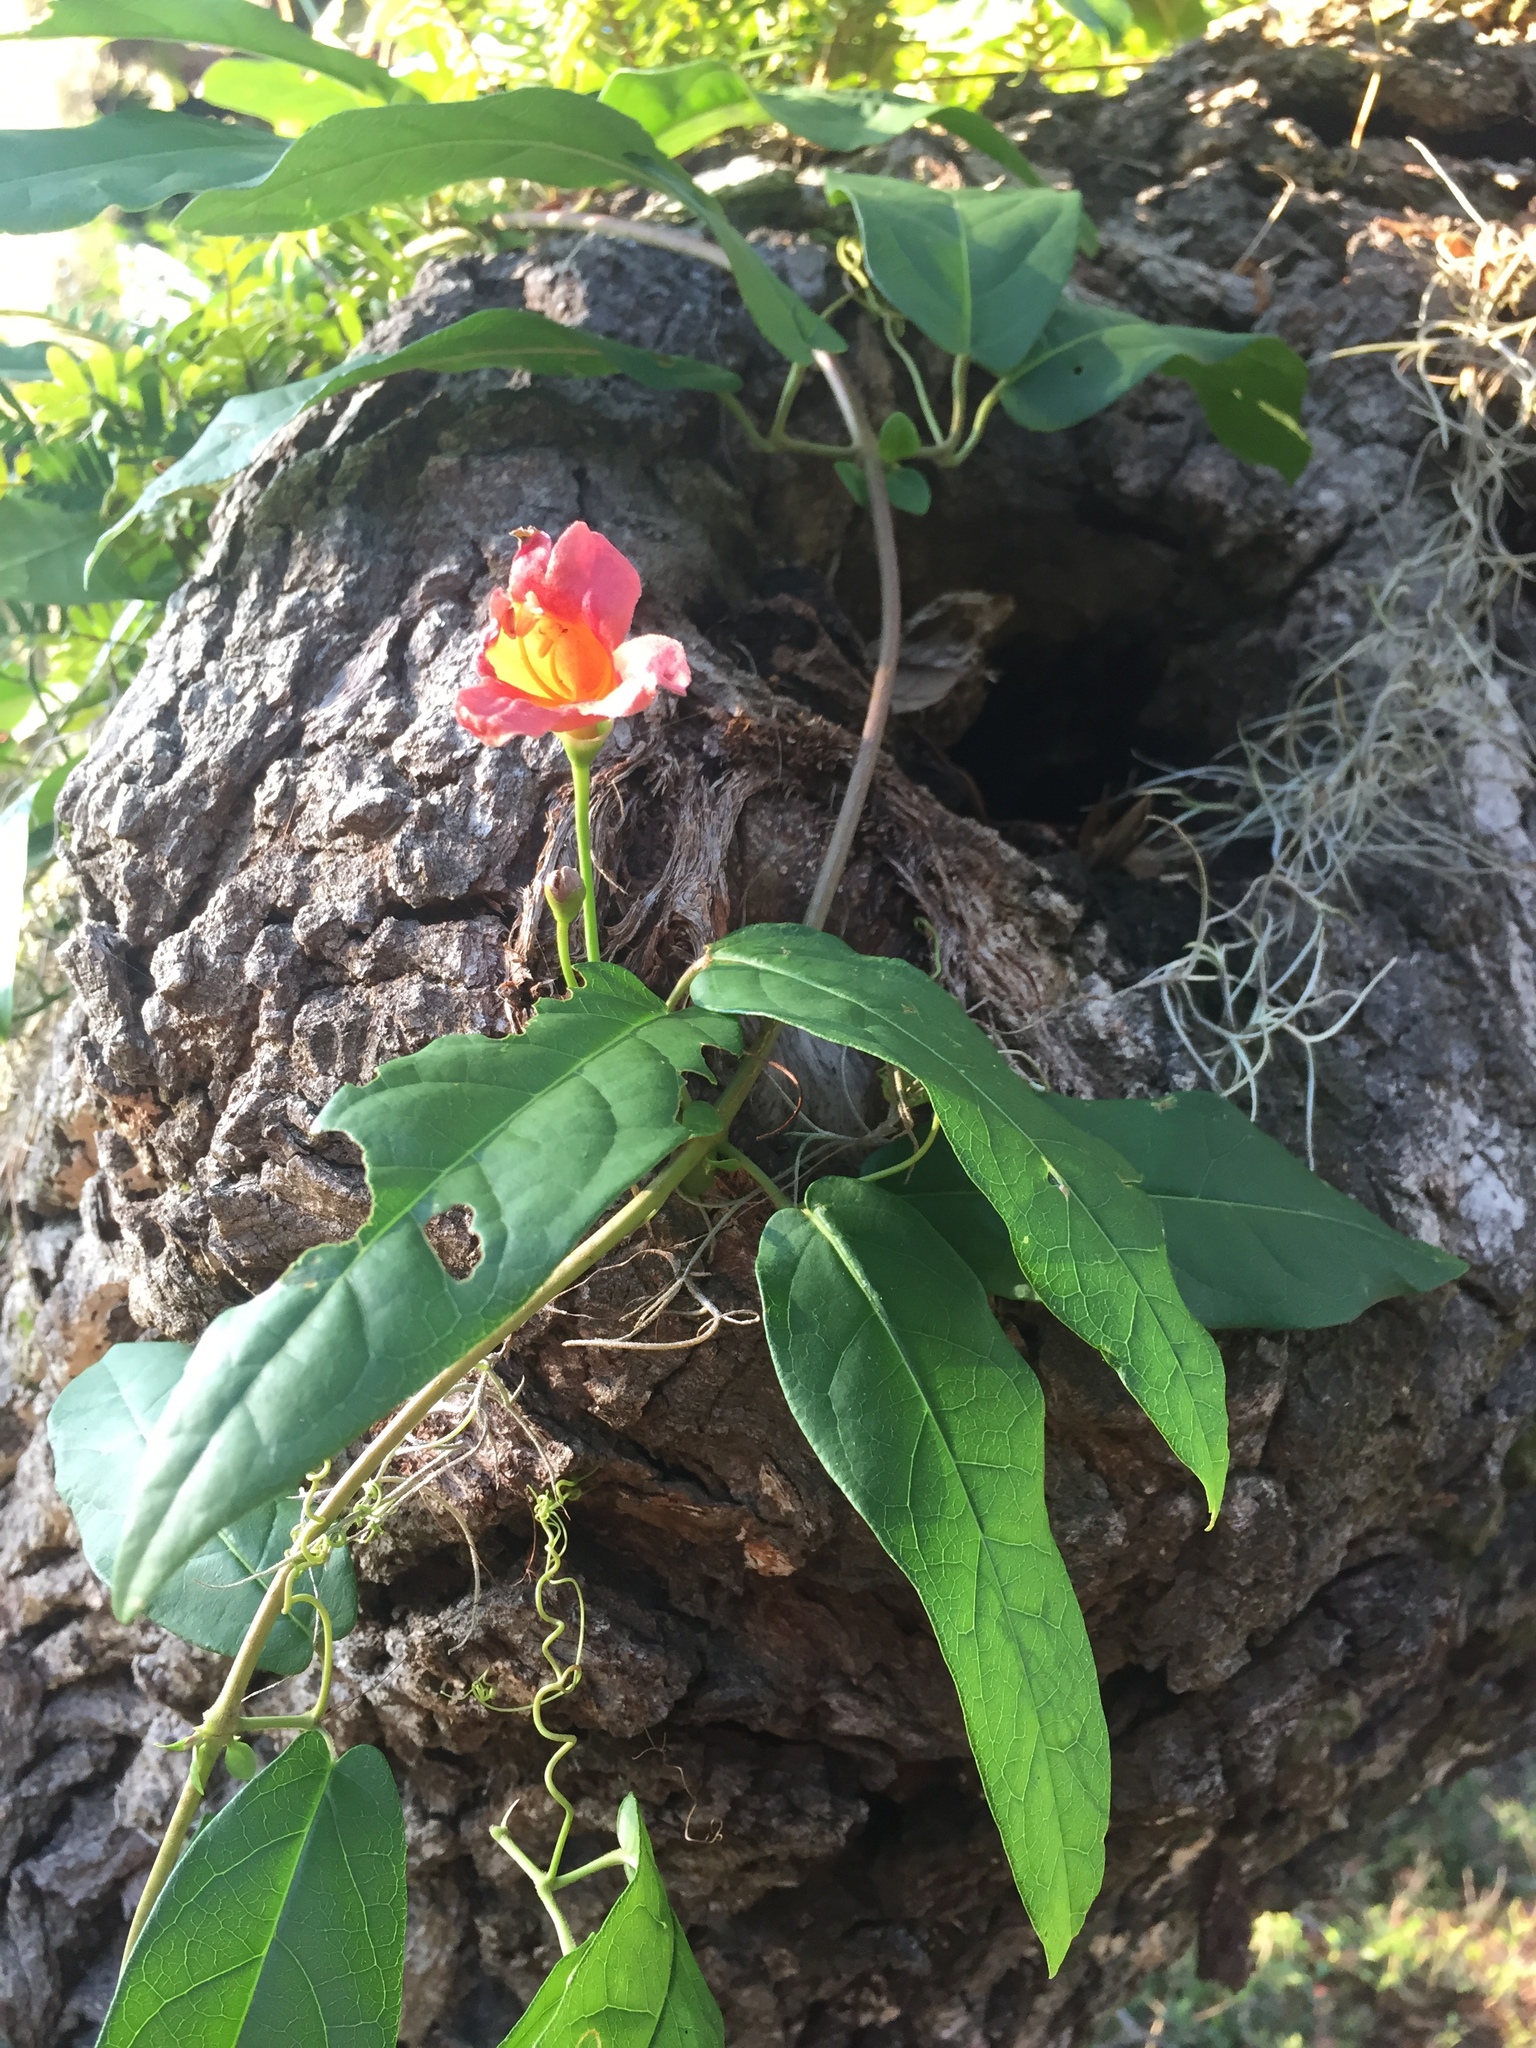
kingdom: Plantae
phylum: Tracheophyta
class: Magnoliopsida
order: Lamiales
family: Bignoniaceae
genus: Bignonia
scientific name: Bignonia capreolata
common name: Crossvine
